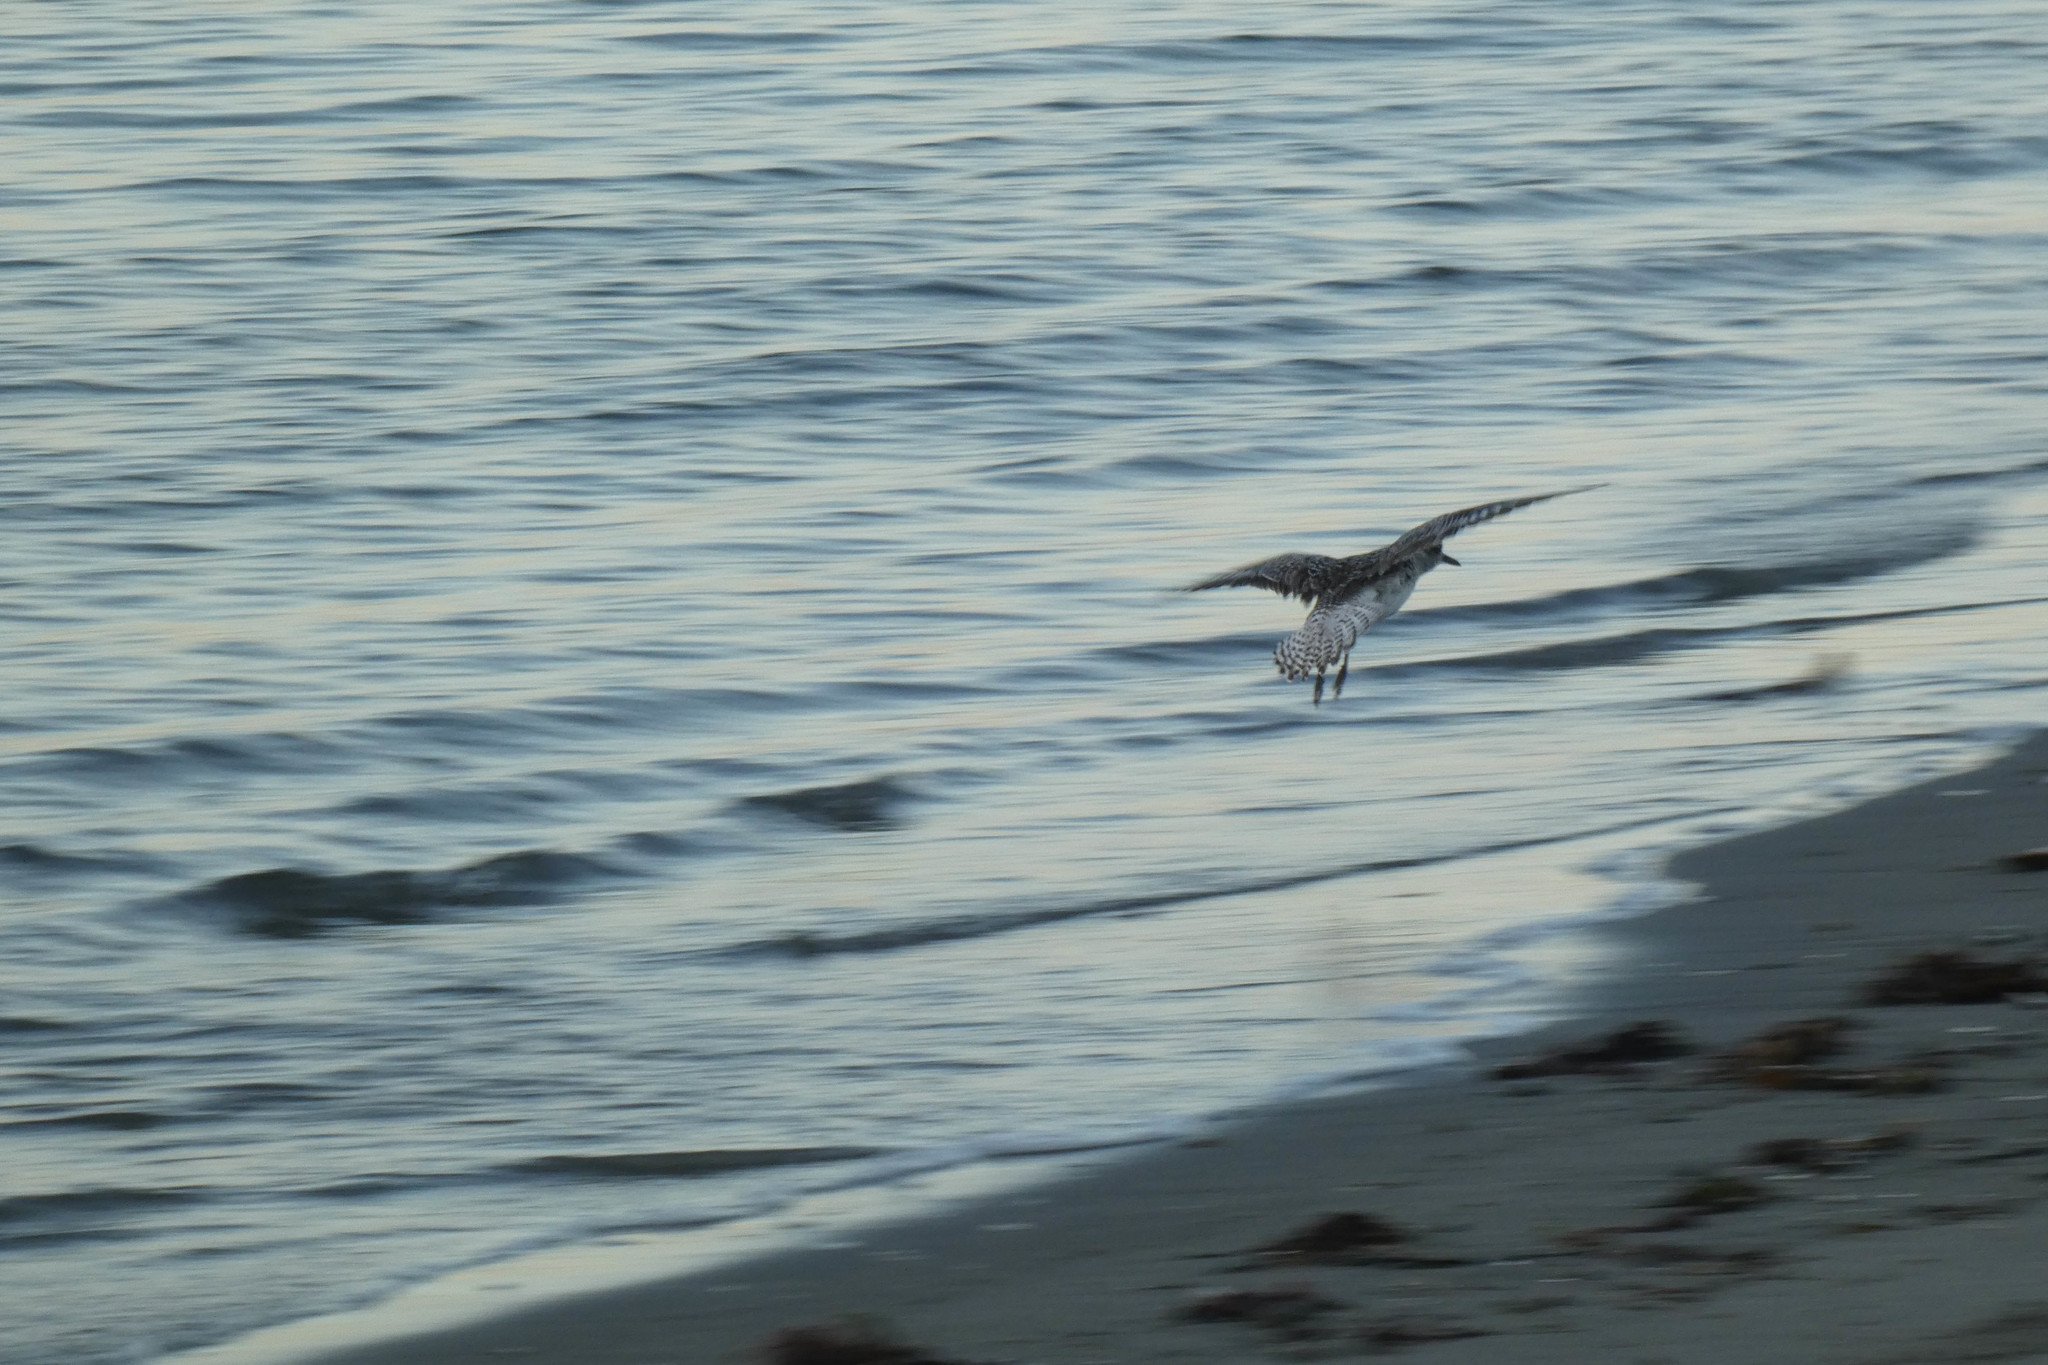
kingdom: Animalia
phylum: Chordata
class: Aves
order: Charadriiformes
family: Charadriidae
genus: Pluvialis
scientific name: Pluvialis squatarola
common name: Grey plover
